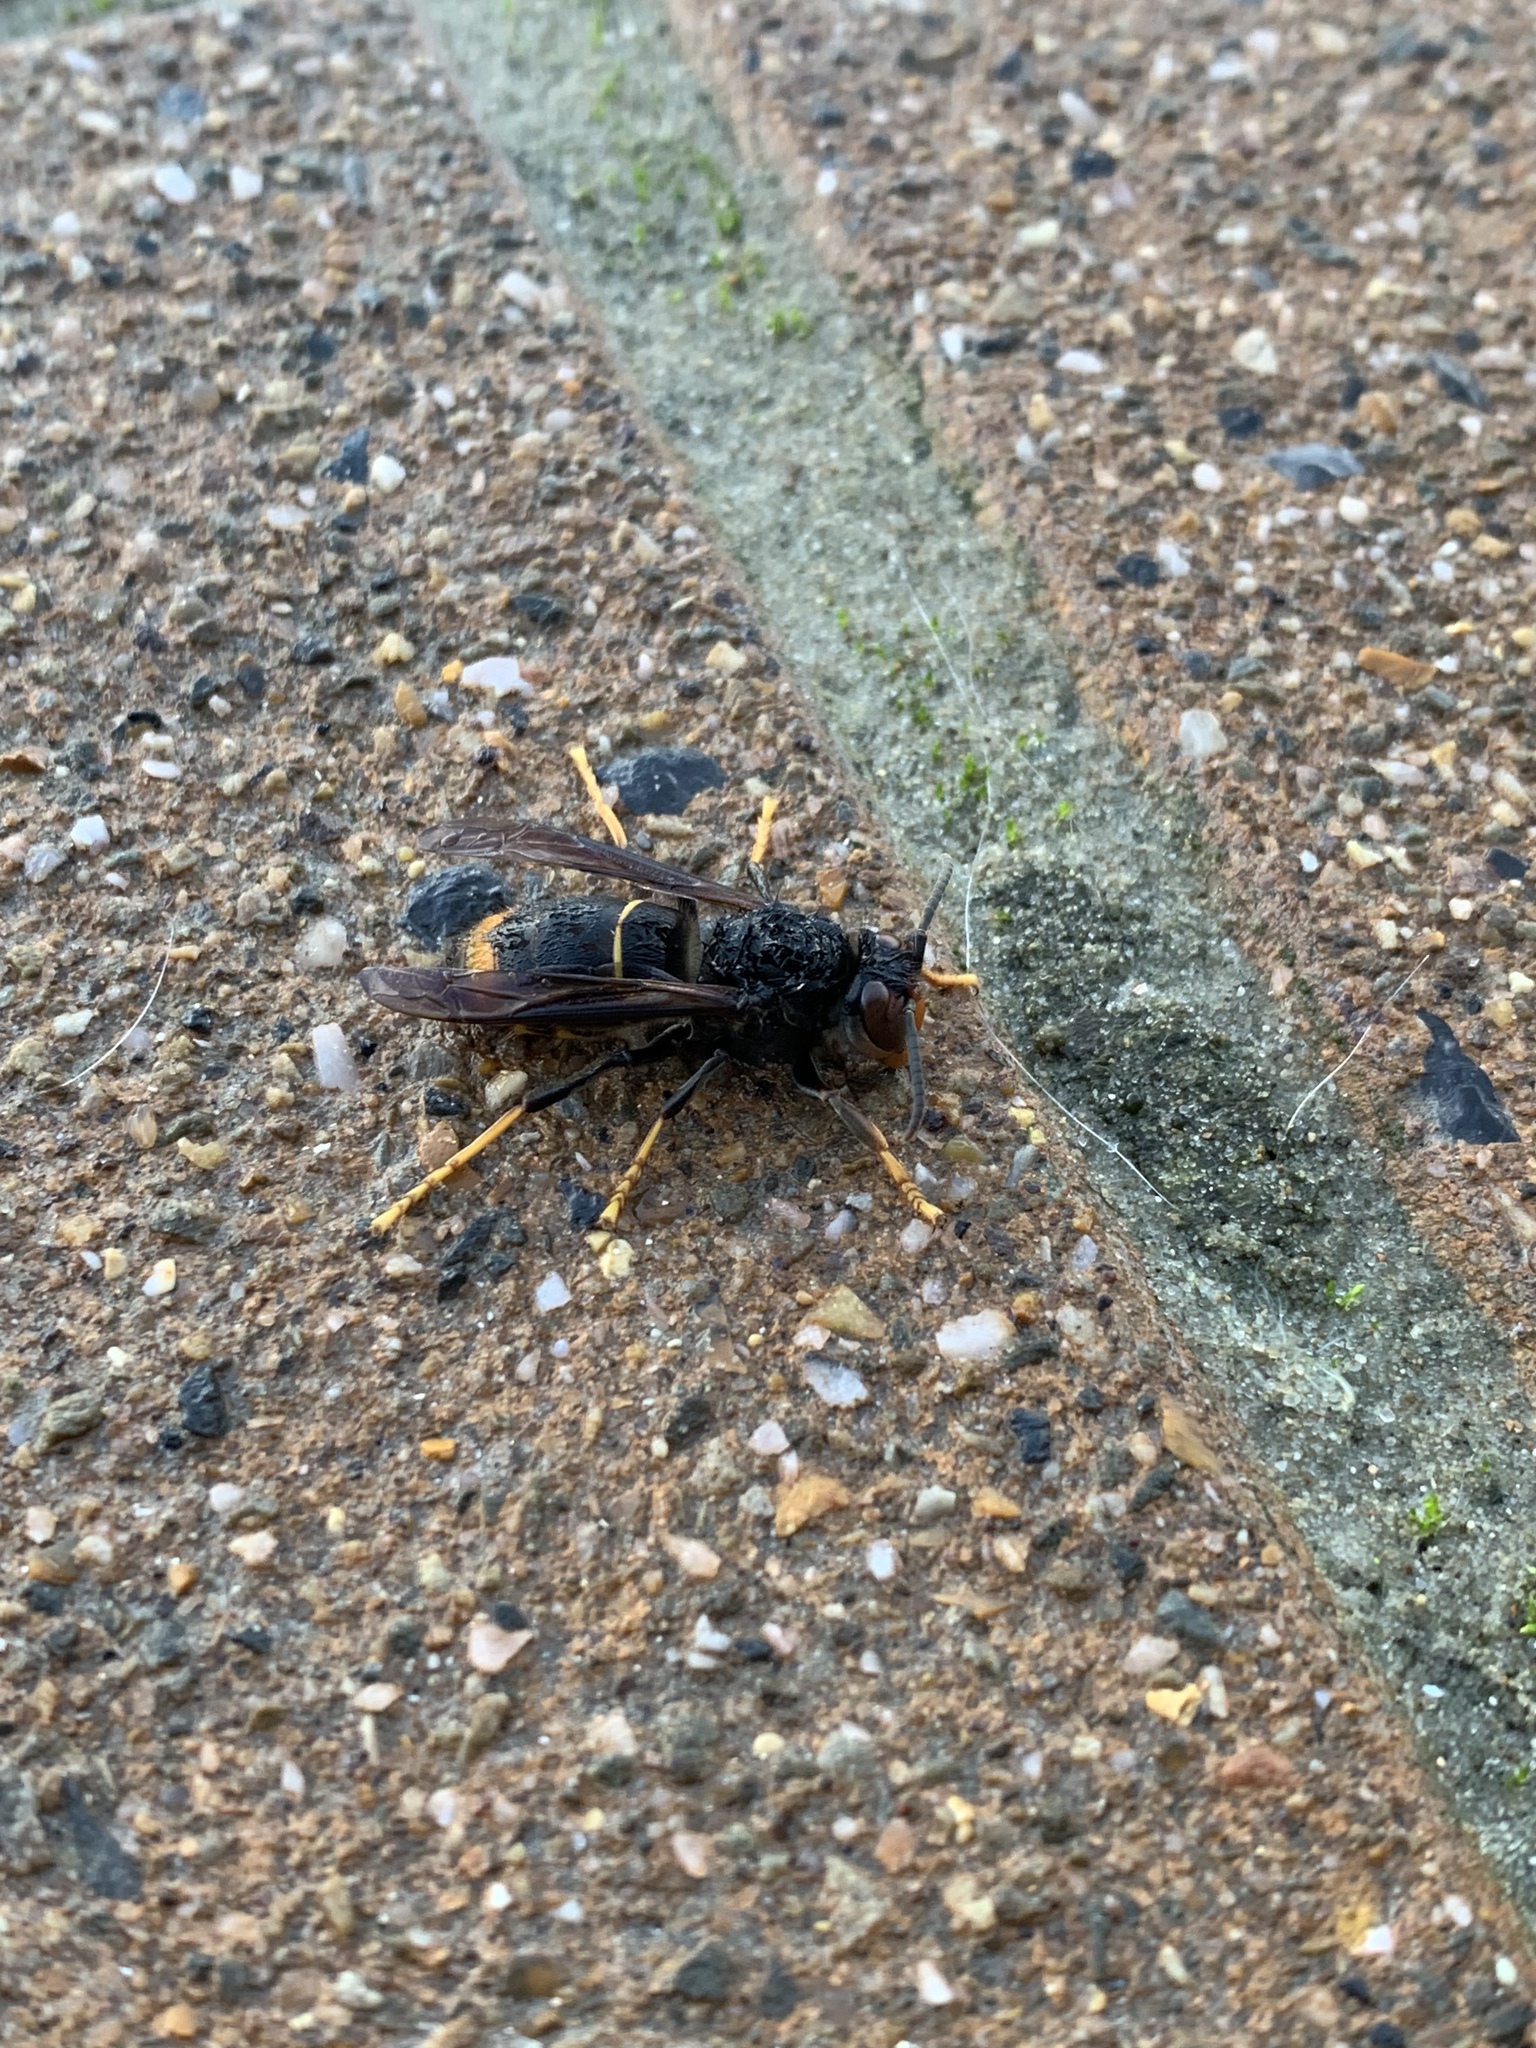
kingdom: Animalia
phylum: Arthropoda
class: Insecta
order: Hymenoptera
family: Vespidae
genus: Vespa
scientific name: Vespa velutina
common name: Asian hornet
